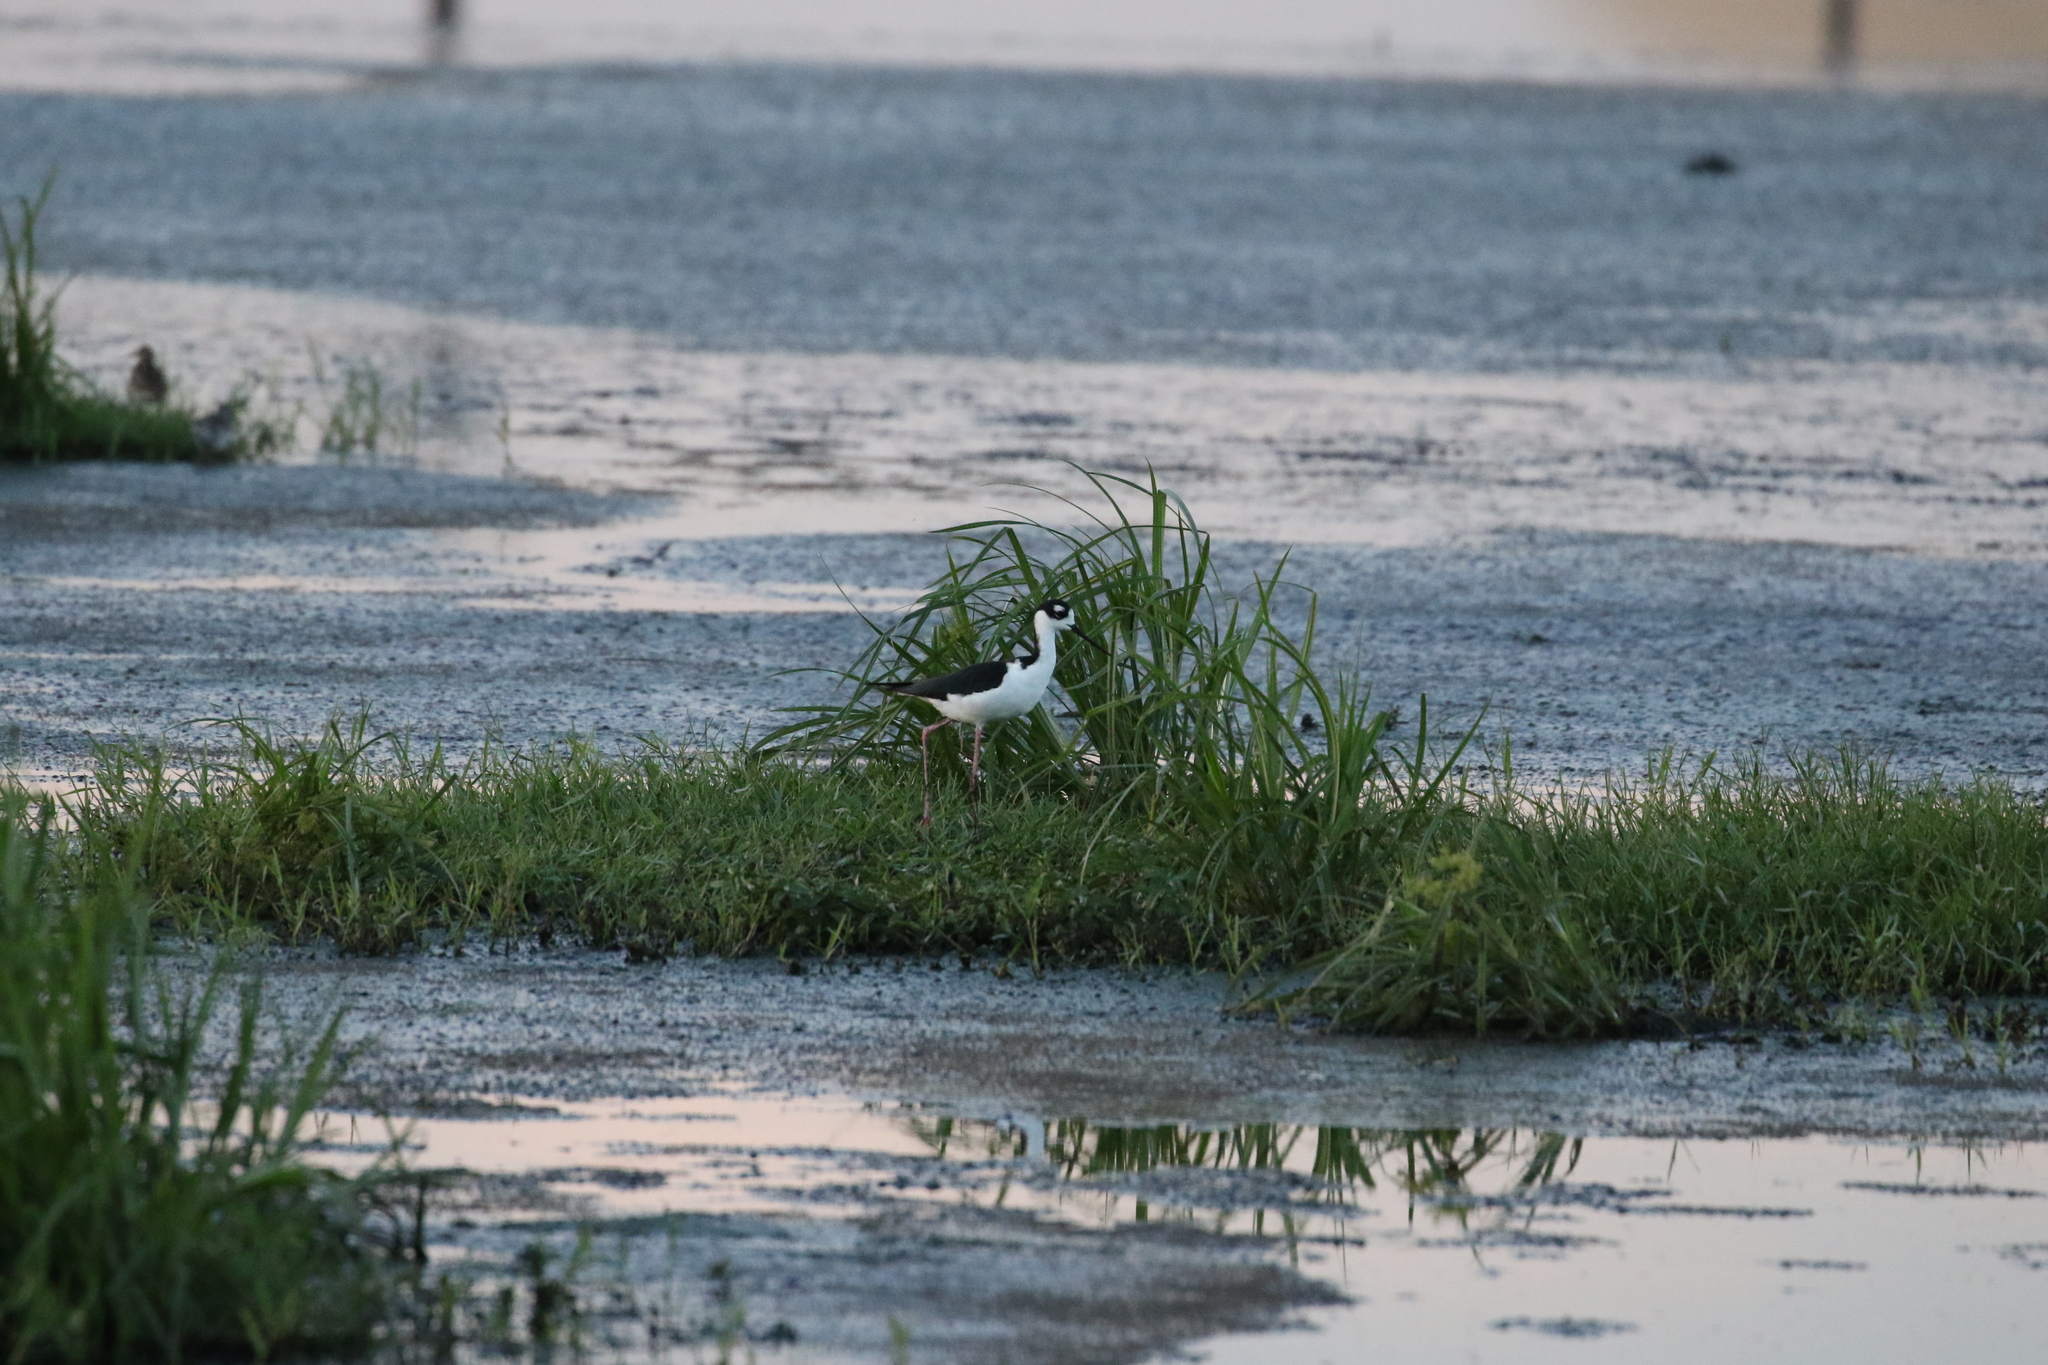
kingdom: Animalia
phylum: Chordata
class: Aves
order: Charadriiformes
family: Recurvirostridae
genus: Himantopus
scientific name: Himantopus mexicanus
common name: Black-necked stilt
